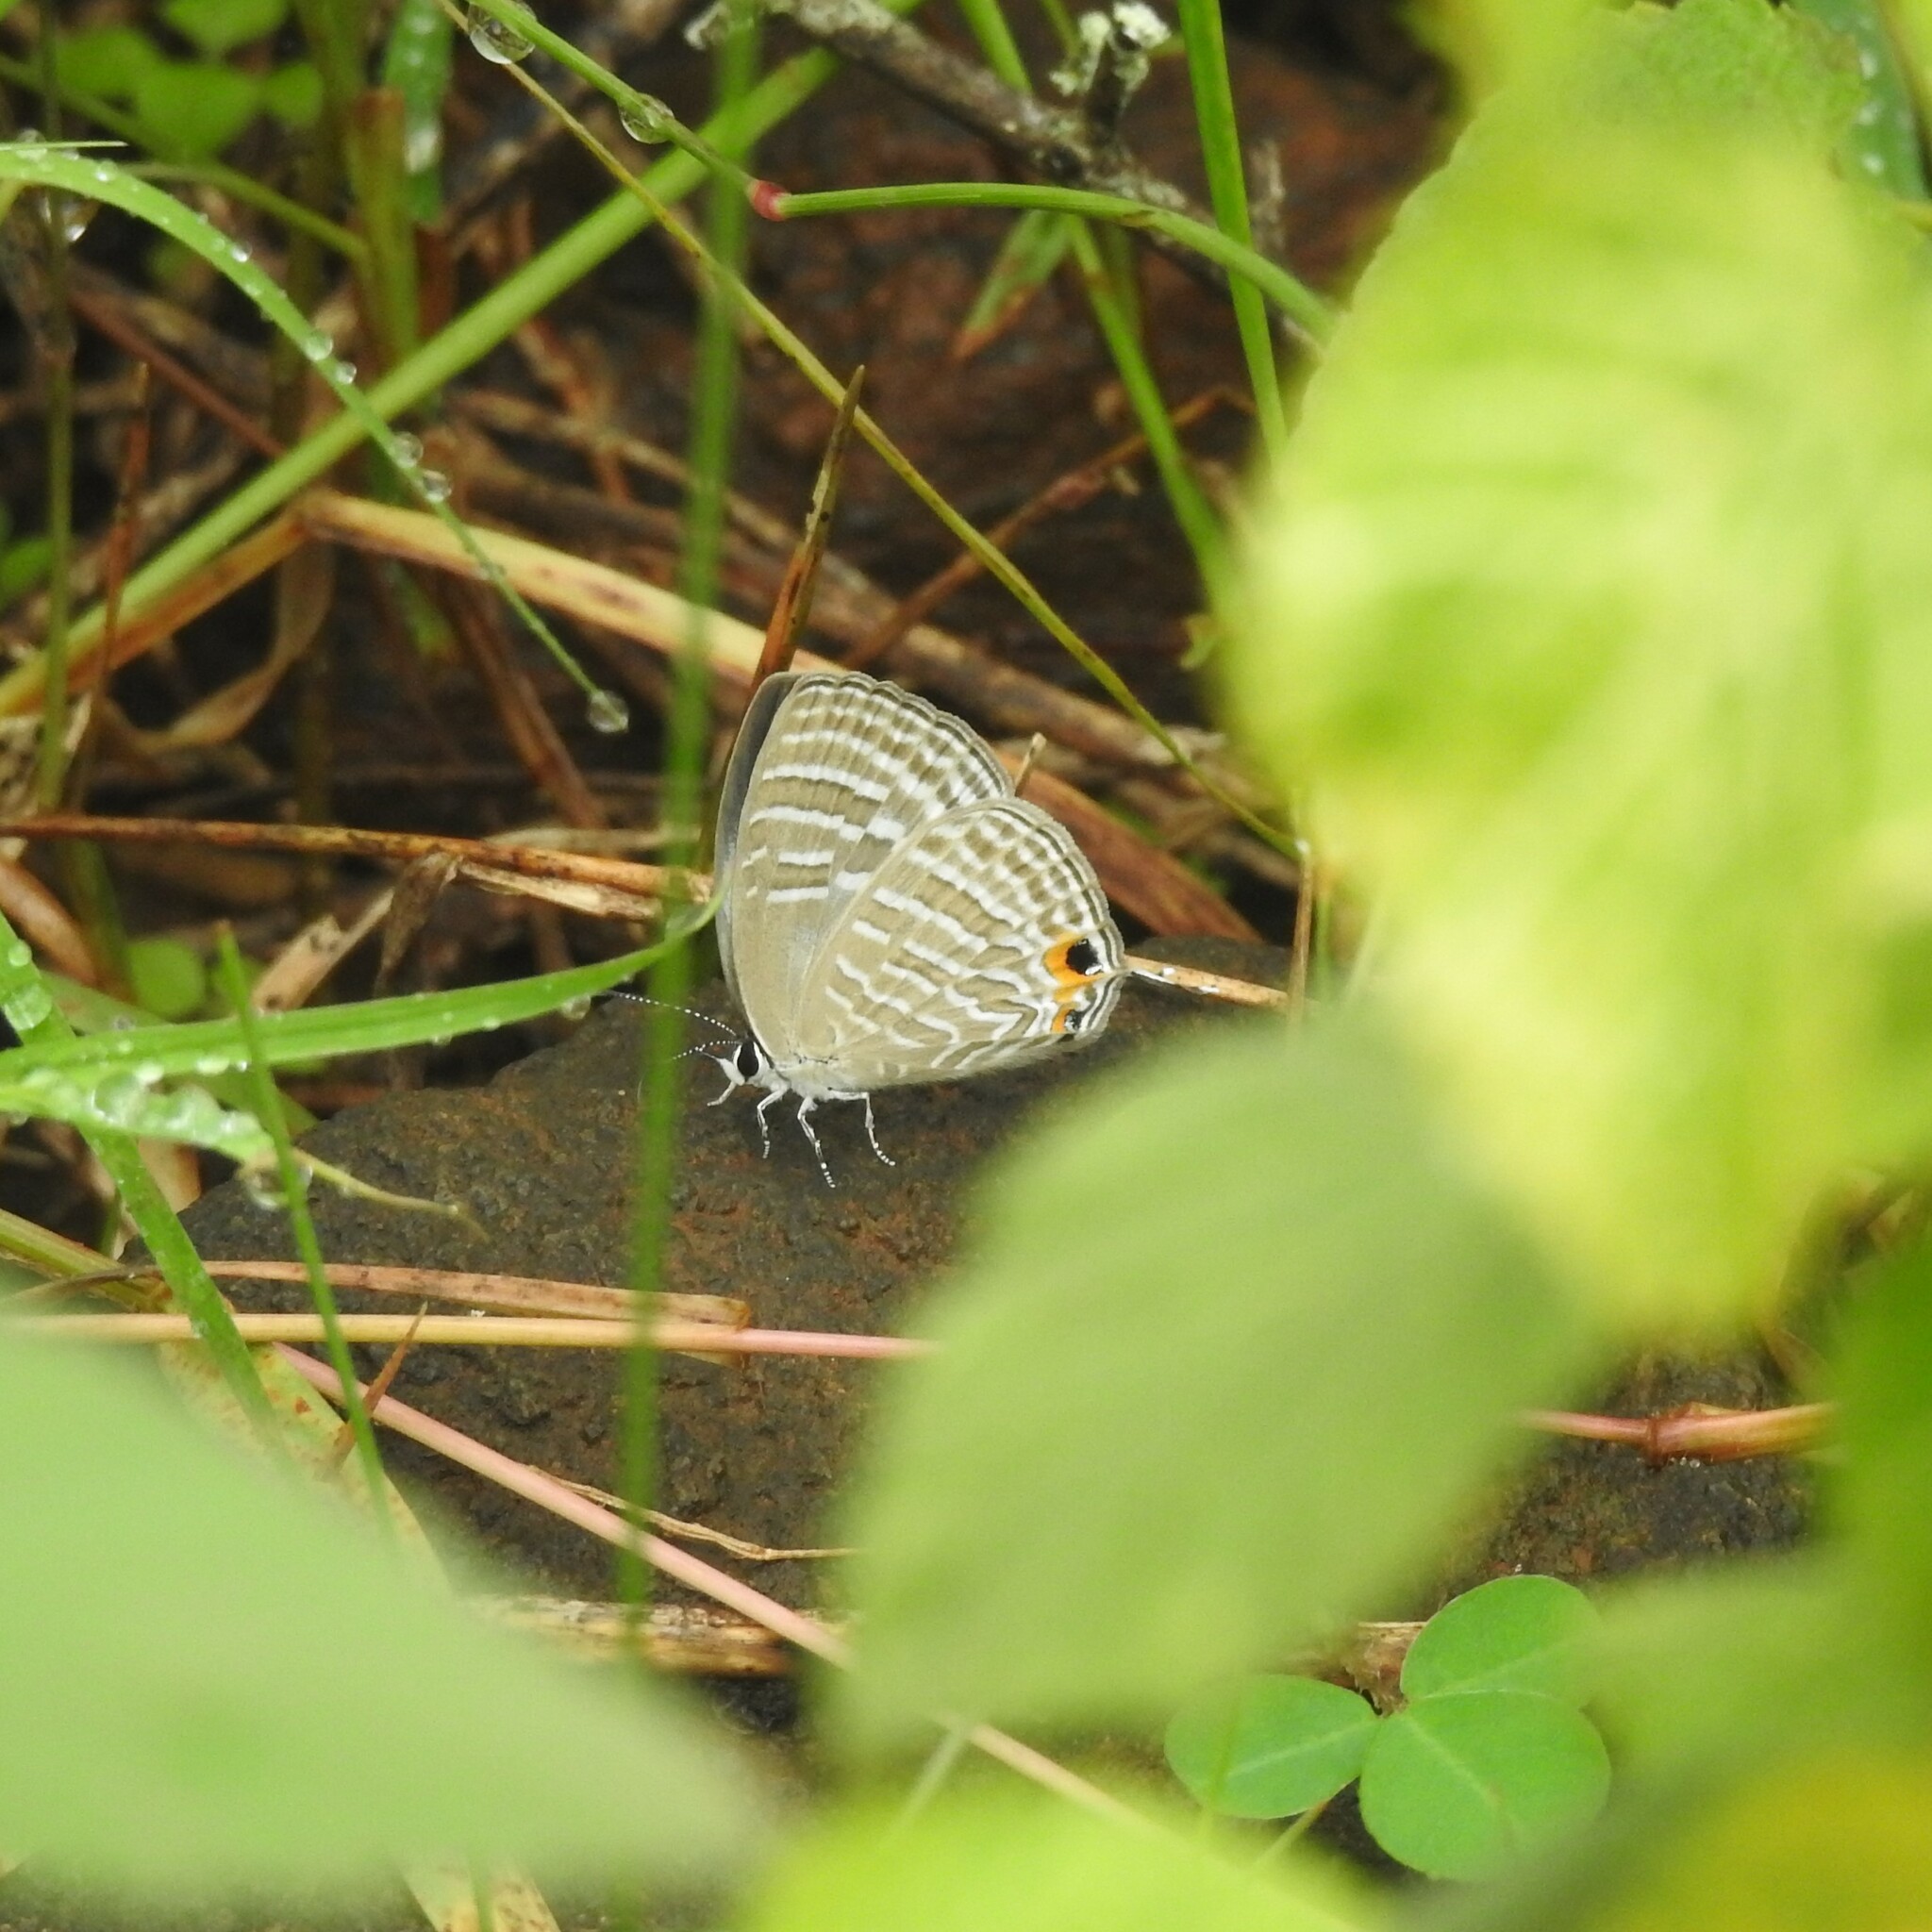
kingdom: Animalia
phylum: Arthropoda
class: Insecta
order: Lepidoptera
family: Lycaenidae
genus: Jamides
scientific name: Jamides celeno
